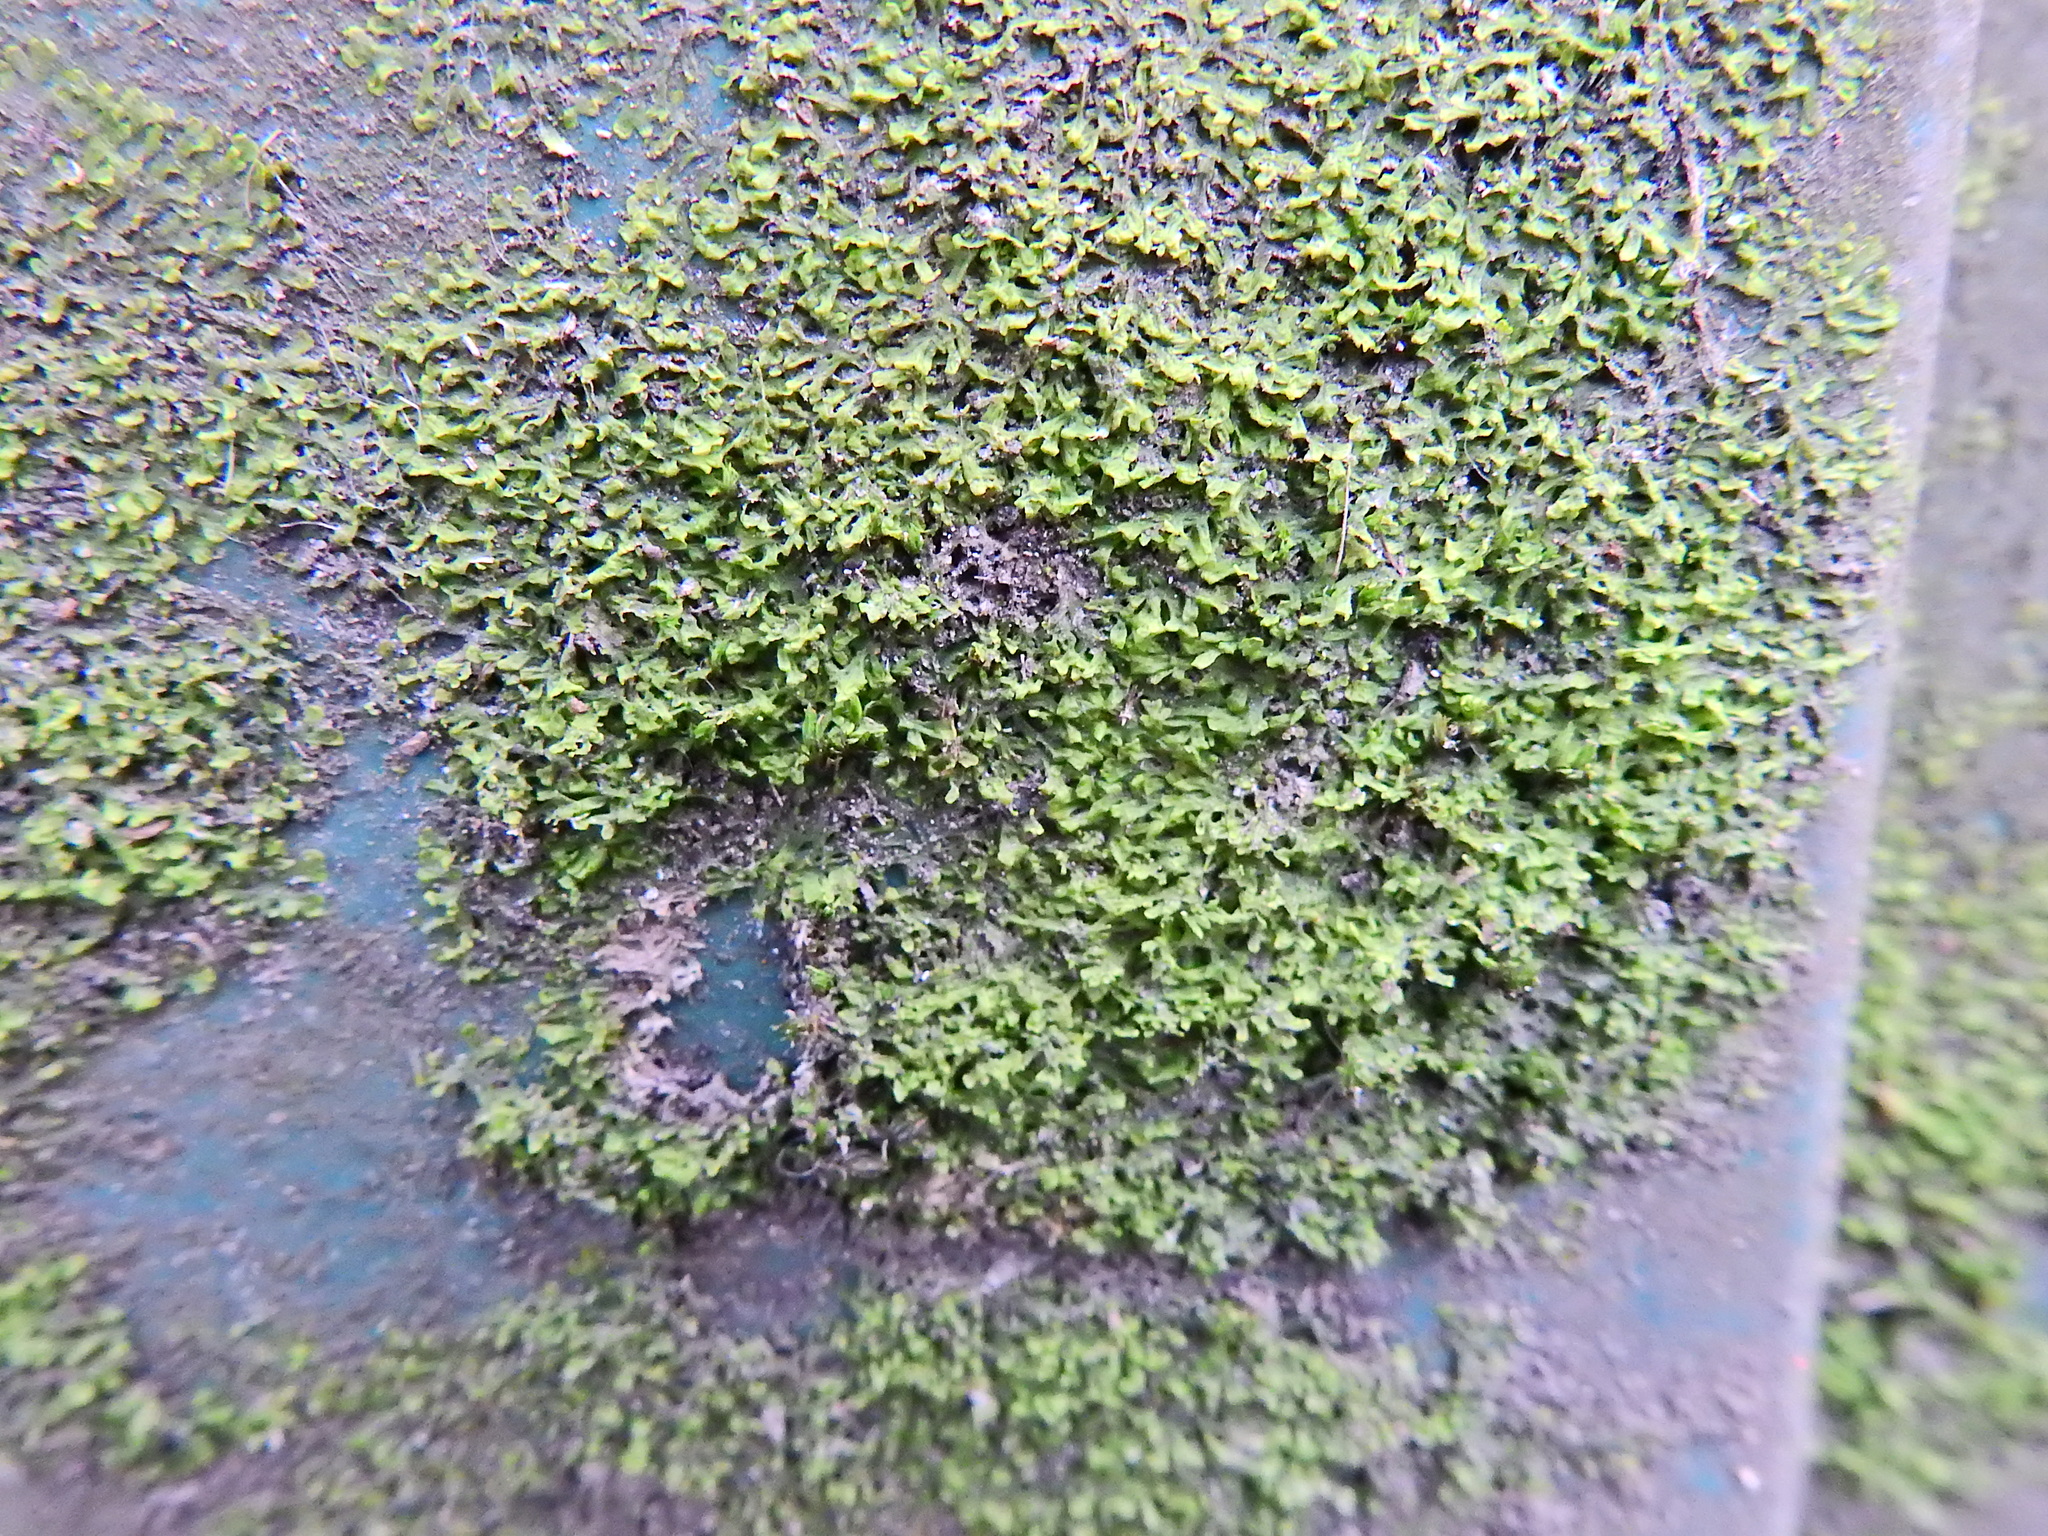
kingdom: Plantae
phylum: Marchantiophyta
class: Jungermanniopsida
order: Metzgeriales
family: Metzgeriaceae
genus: Metzgeria
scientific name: Metzgeria furcata
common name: Forked veilwort
